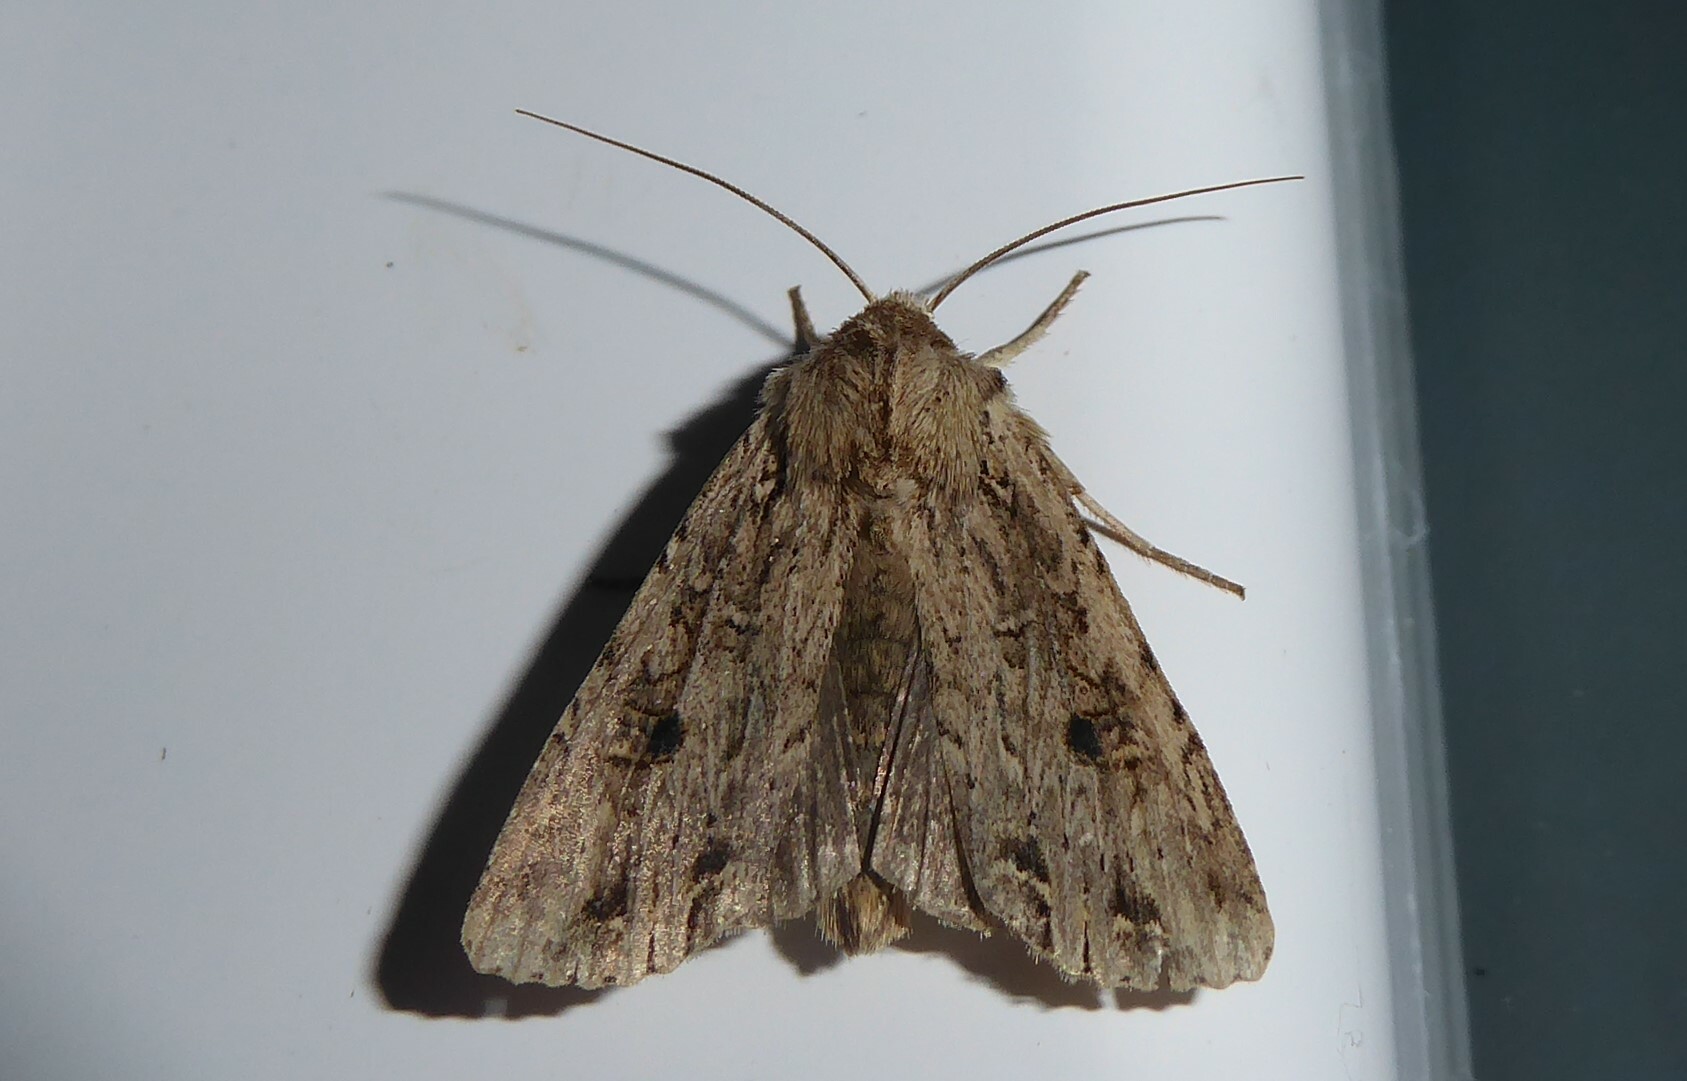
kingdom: Animalia
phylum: Arthropoda
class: Insecta
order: Lepidoptera
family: Noctuidae
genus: Ichneutica
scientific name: Ichneutica lignana
